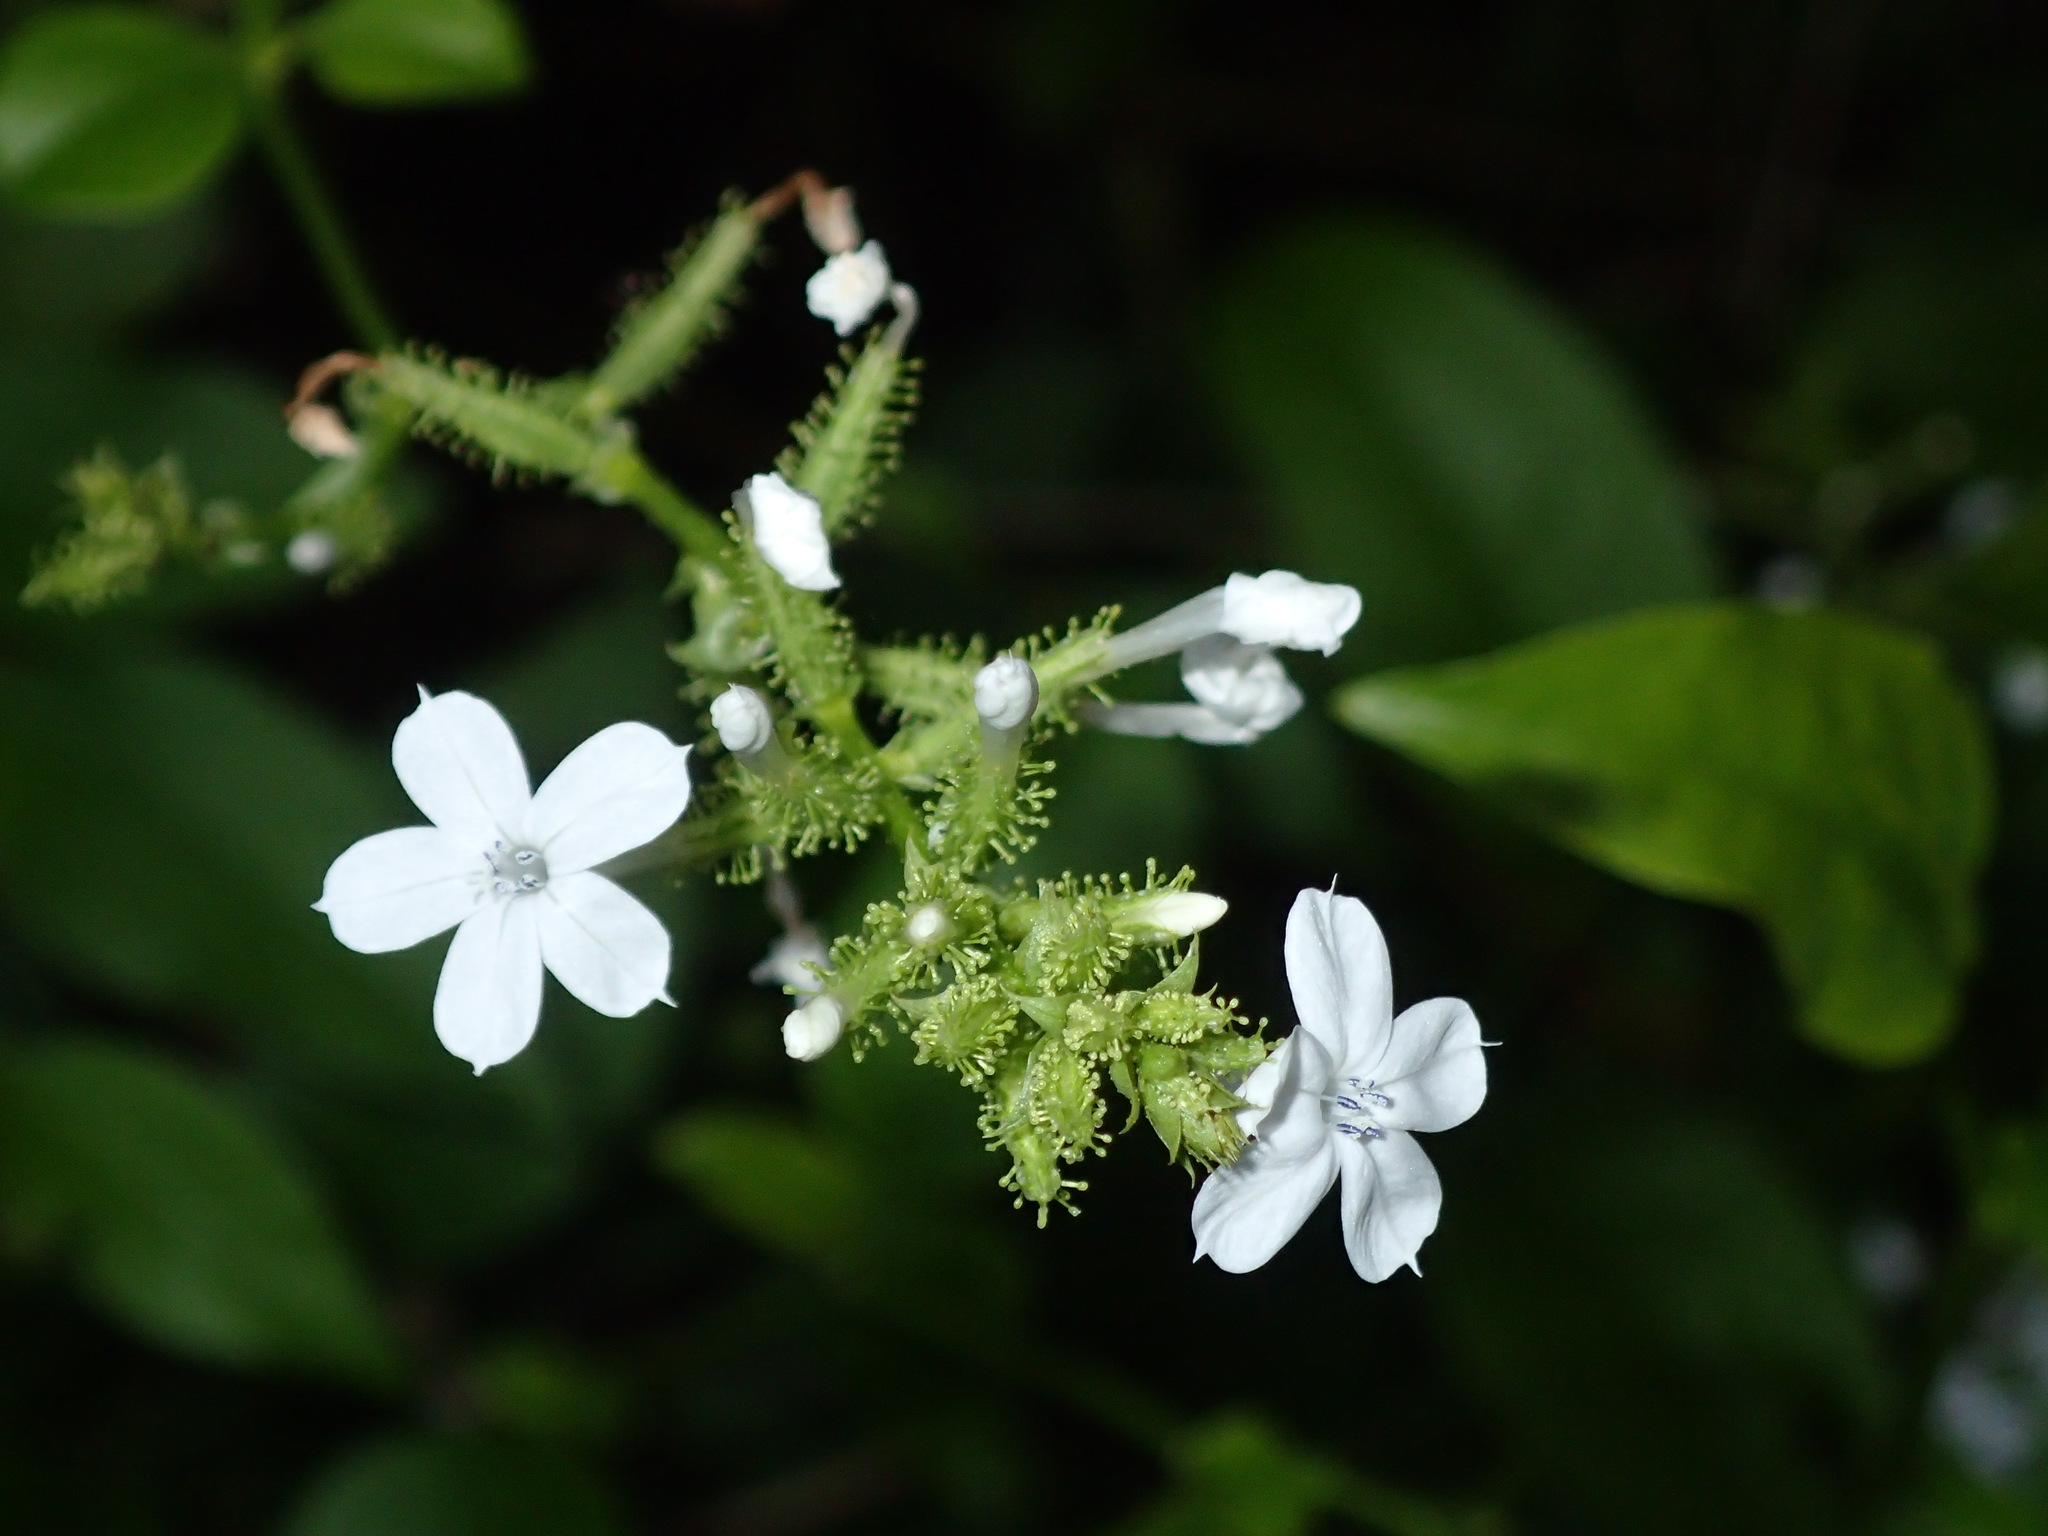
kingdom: Plantae
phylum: Tracheophyta
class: Magnoliopsida
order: Caryophyllales
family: Plumbaginaceae
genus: Plumbago
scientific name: Plumbago zeylanica
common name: Doctorbush
